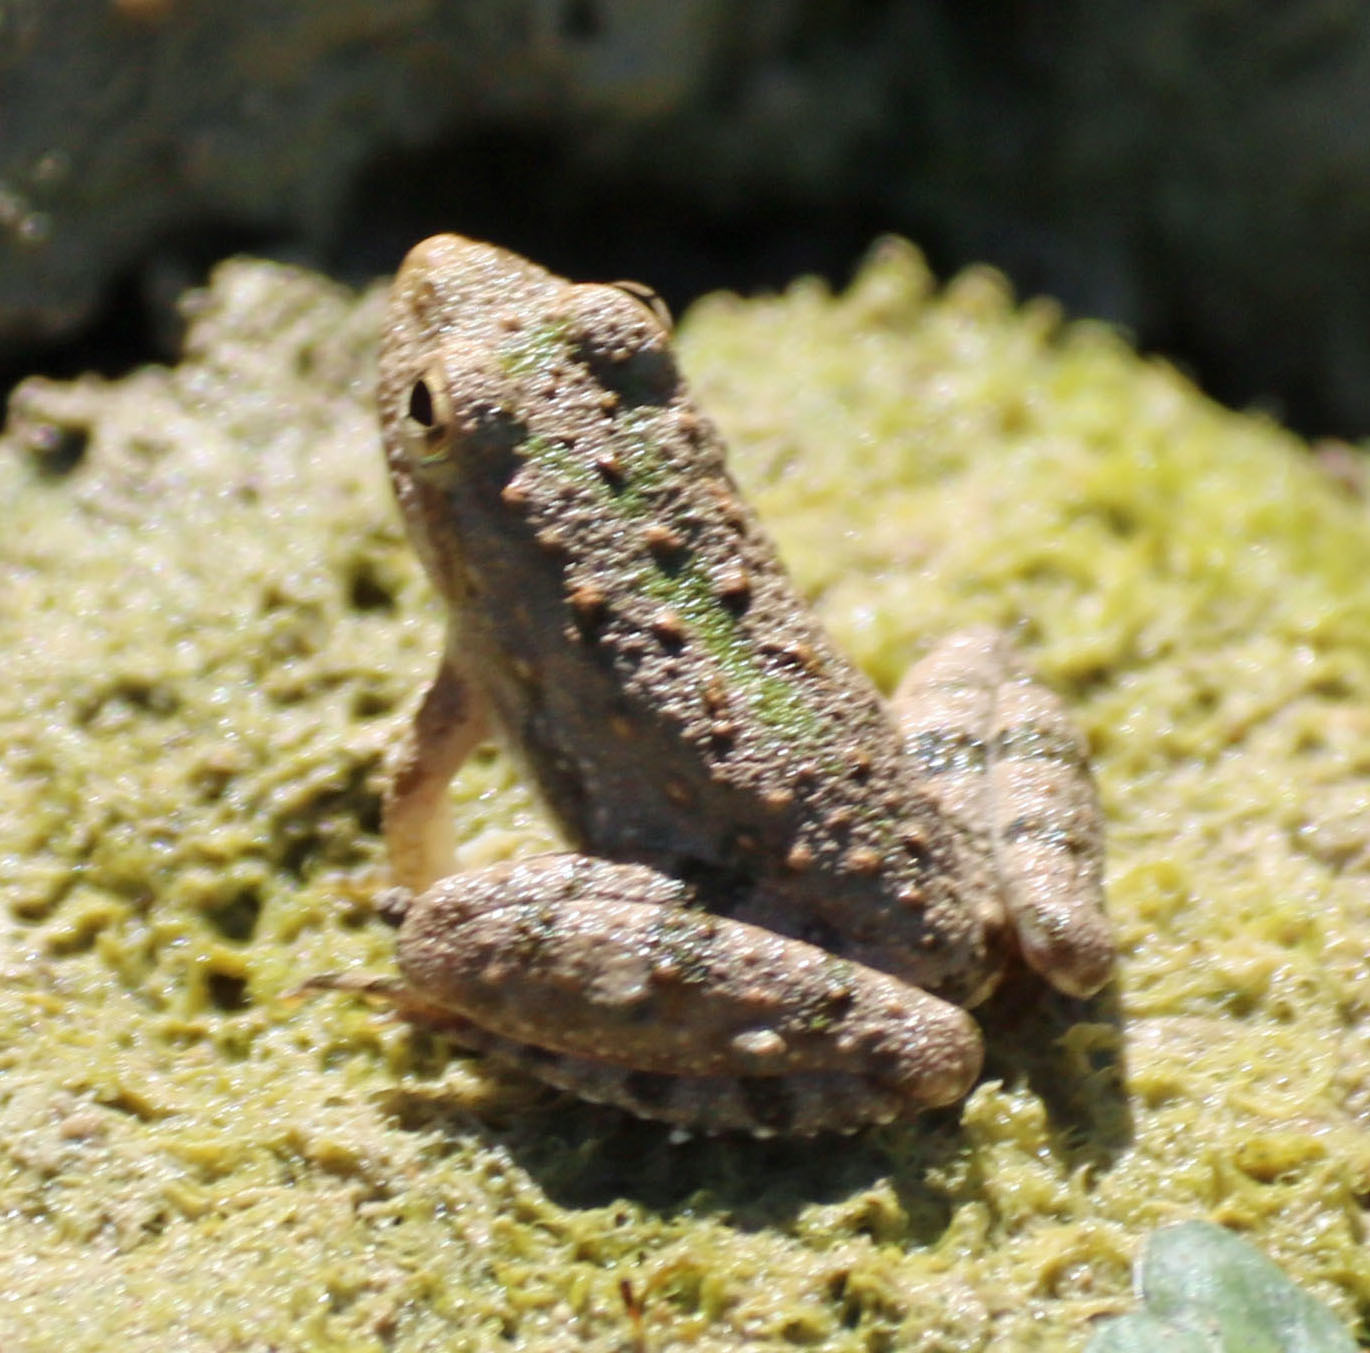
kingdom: Animalia
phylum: Chordata
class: Amphibia
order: Anura
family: Hylidae
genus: Acris
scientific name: Acris blanchardi
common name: Blanchard's cricket frog
